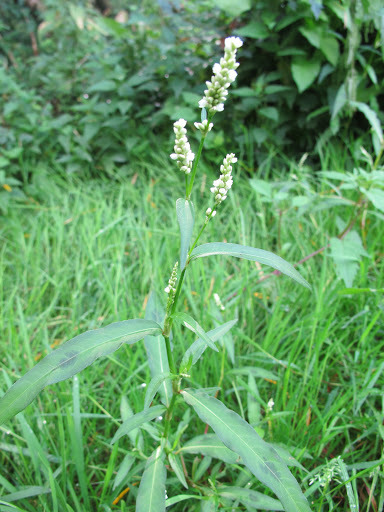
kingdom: Plantae
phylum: Tracheophyta
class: Magnoliopsida
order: Caryophyllales
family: Polygonaceae
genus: Persicaria
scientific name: Persicaria maculosa
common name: Redshank
